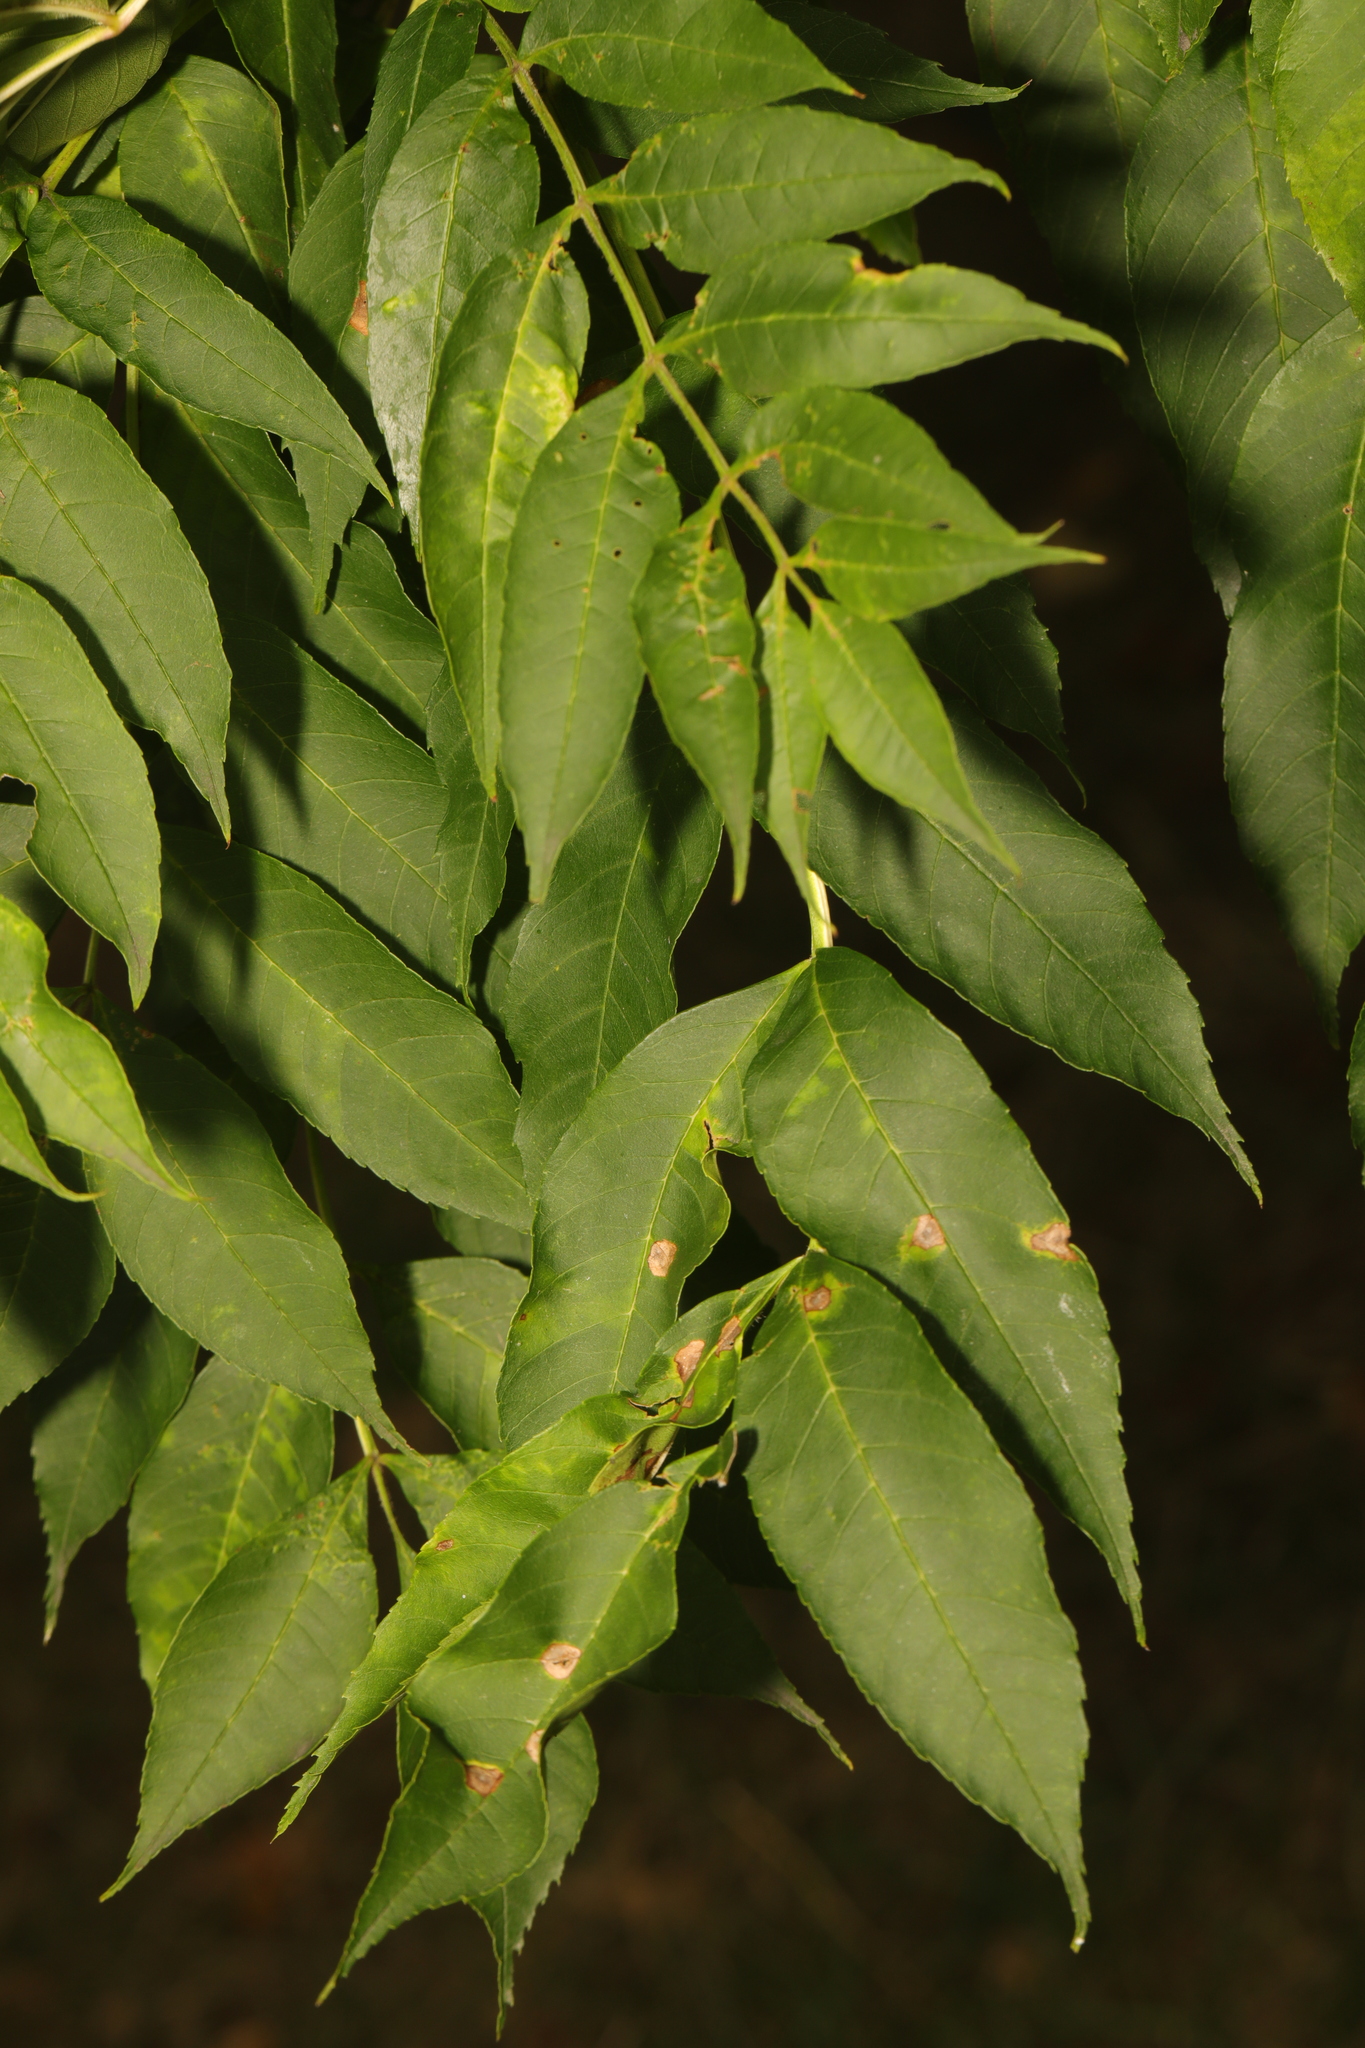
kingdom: Plantae
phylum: Tracheophyta
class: Magnoliopsida
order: Lamiales
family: Oleaceae
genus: Fraxinus
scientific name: Fraxinus excelsior
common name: European ash
